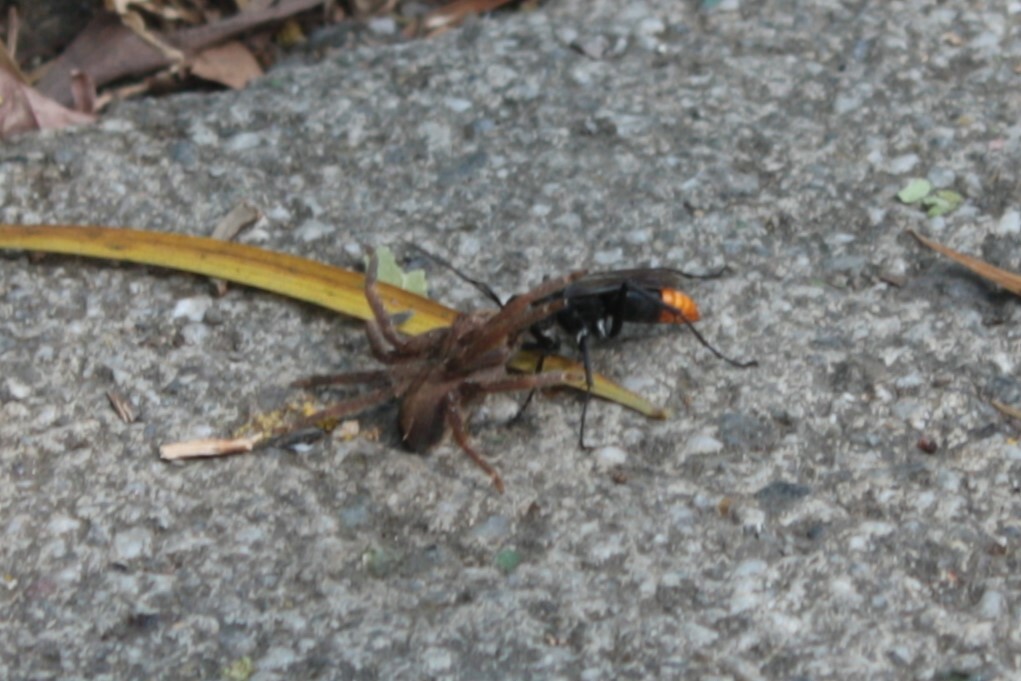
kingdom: Animalia
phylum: Arthropoda
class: Insecta
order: Hymenoptera
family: Pompilidae
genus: Tachypompilus
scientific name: Tachypompilus analis
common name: Spider wasp
